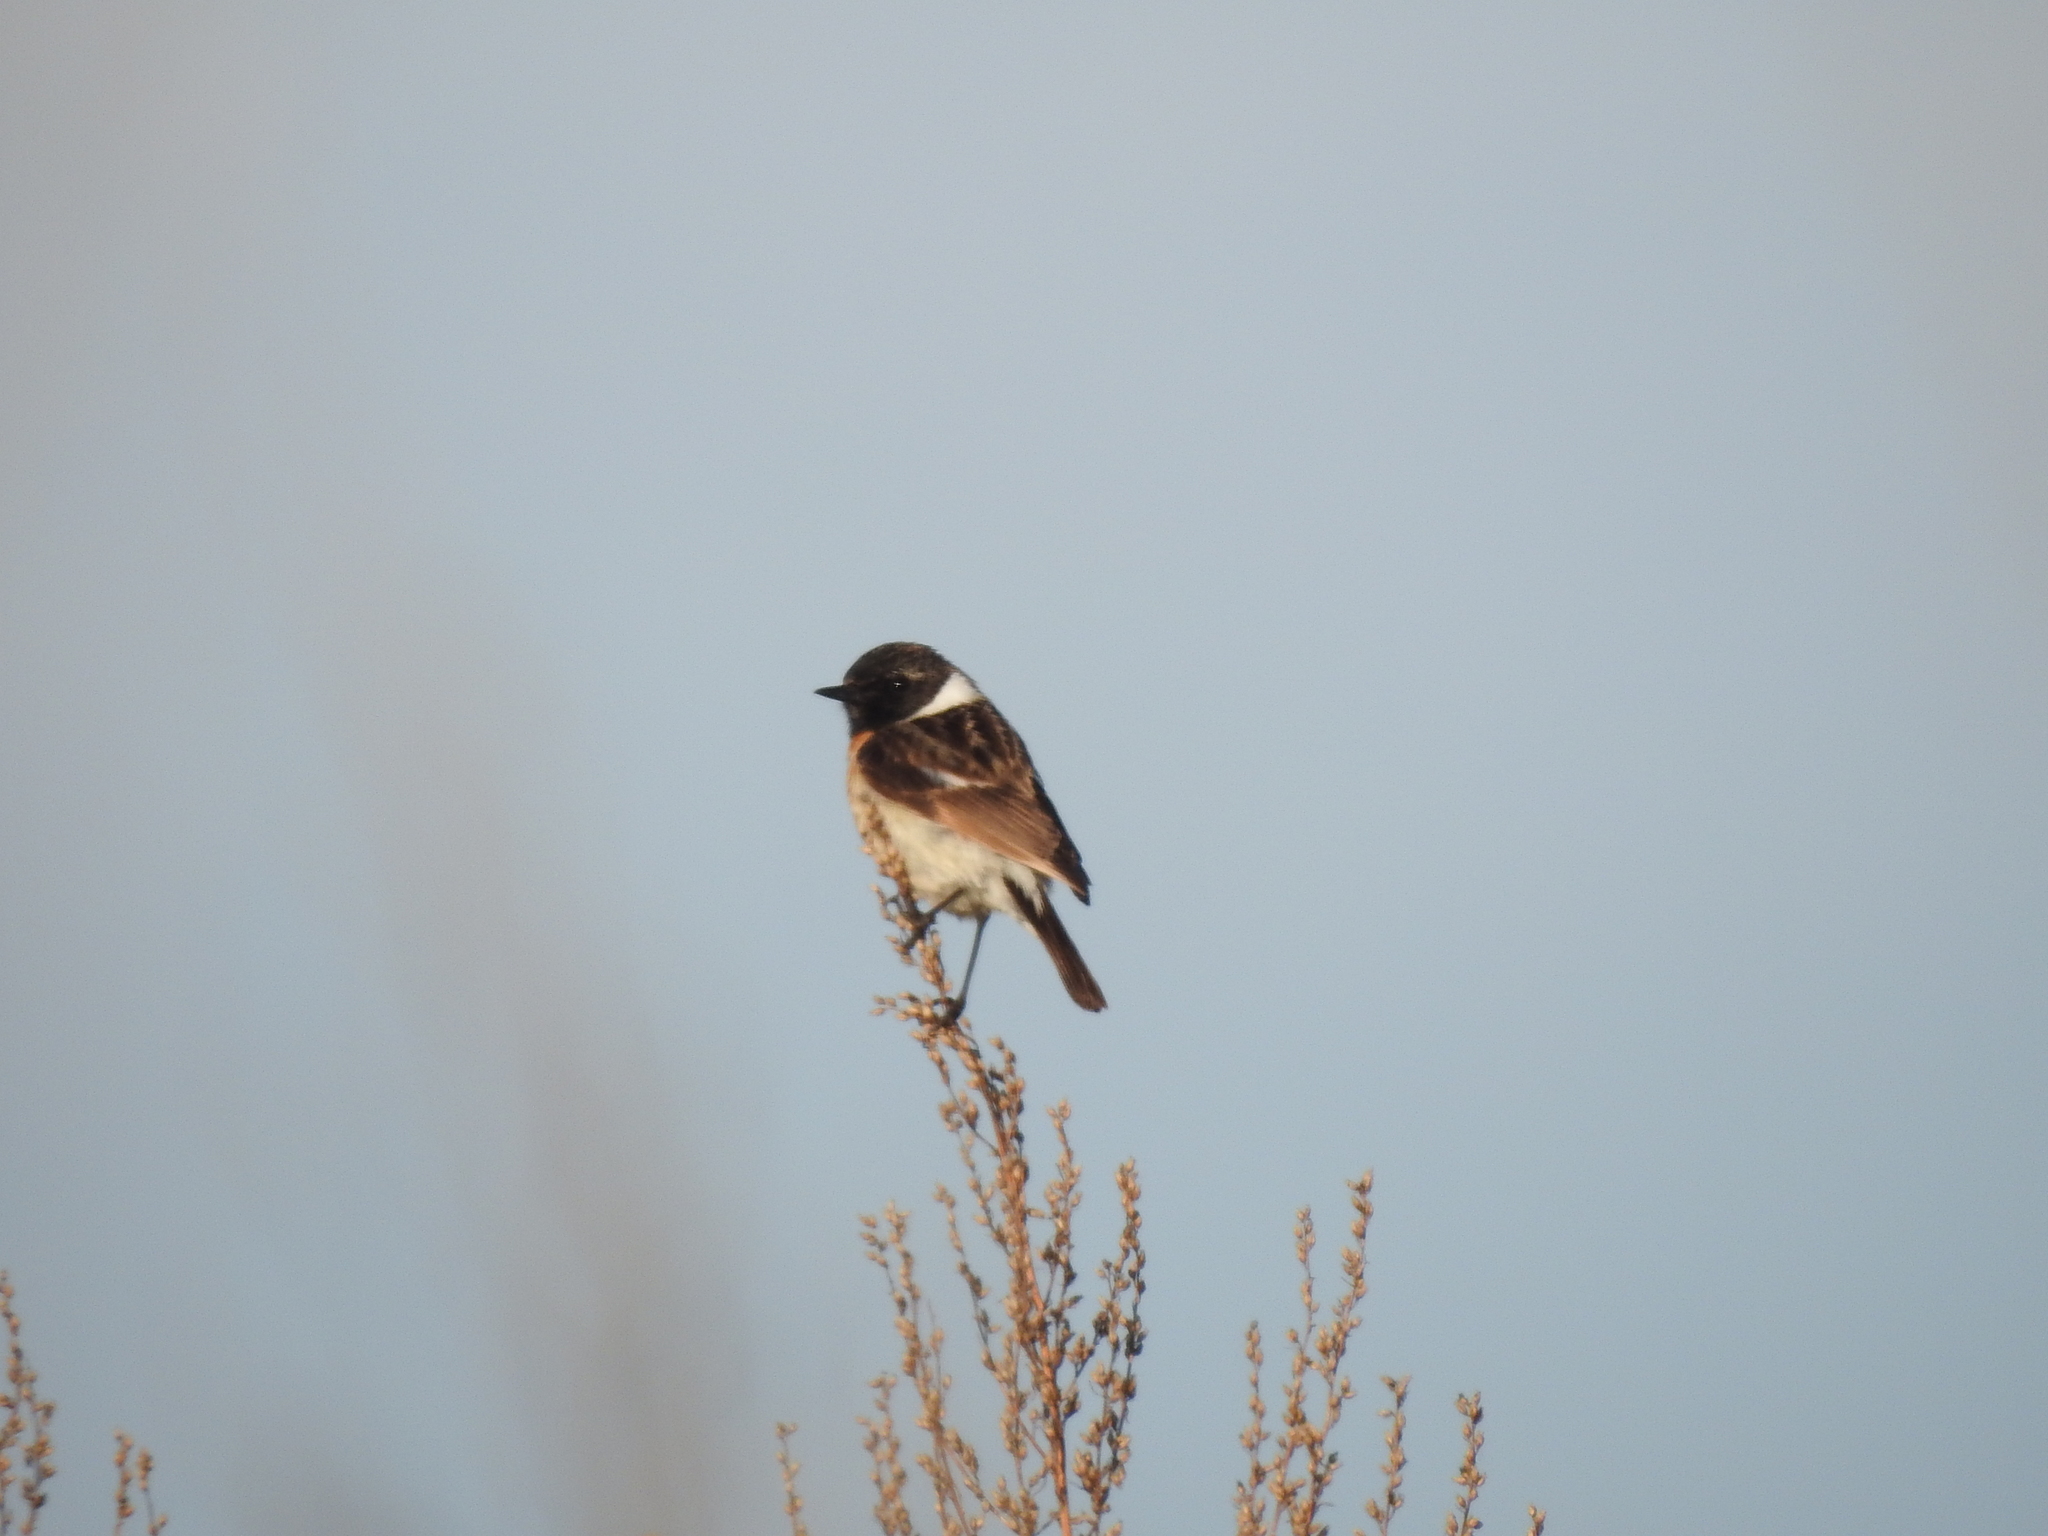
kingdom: Animalia
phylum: Chordata
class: Aves
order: Passeriformes
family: Muscicapidae
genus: Saxicola
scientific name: Saxicola maurus
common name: Siberian stonechat
